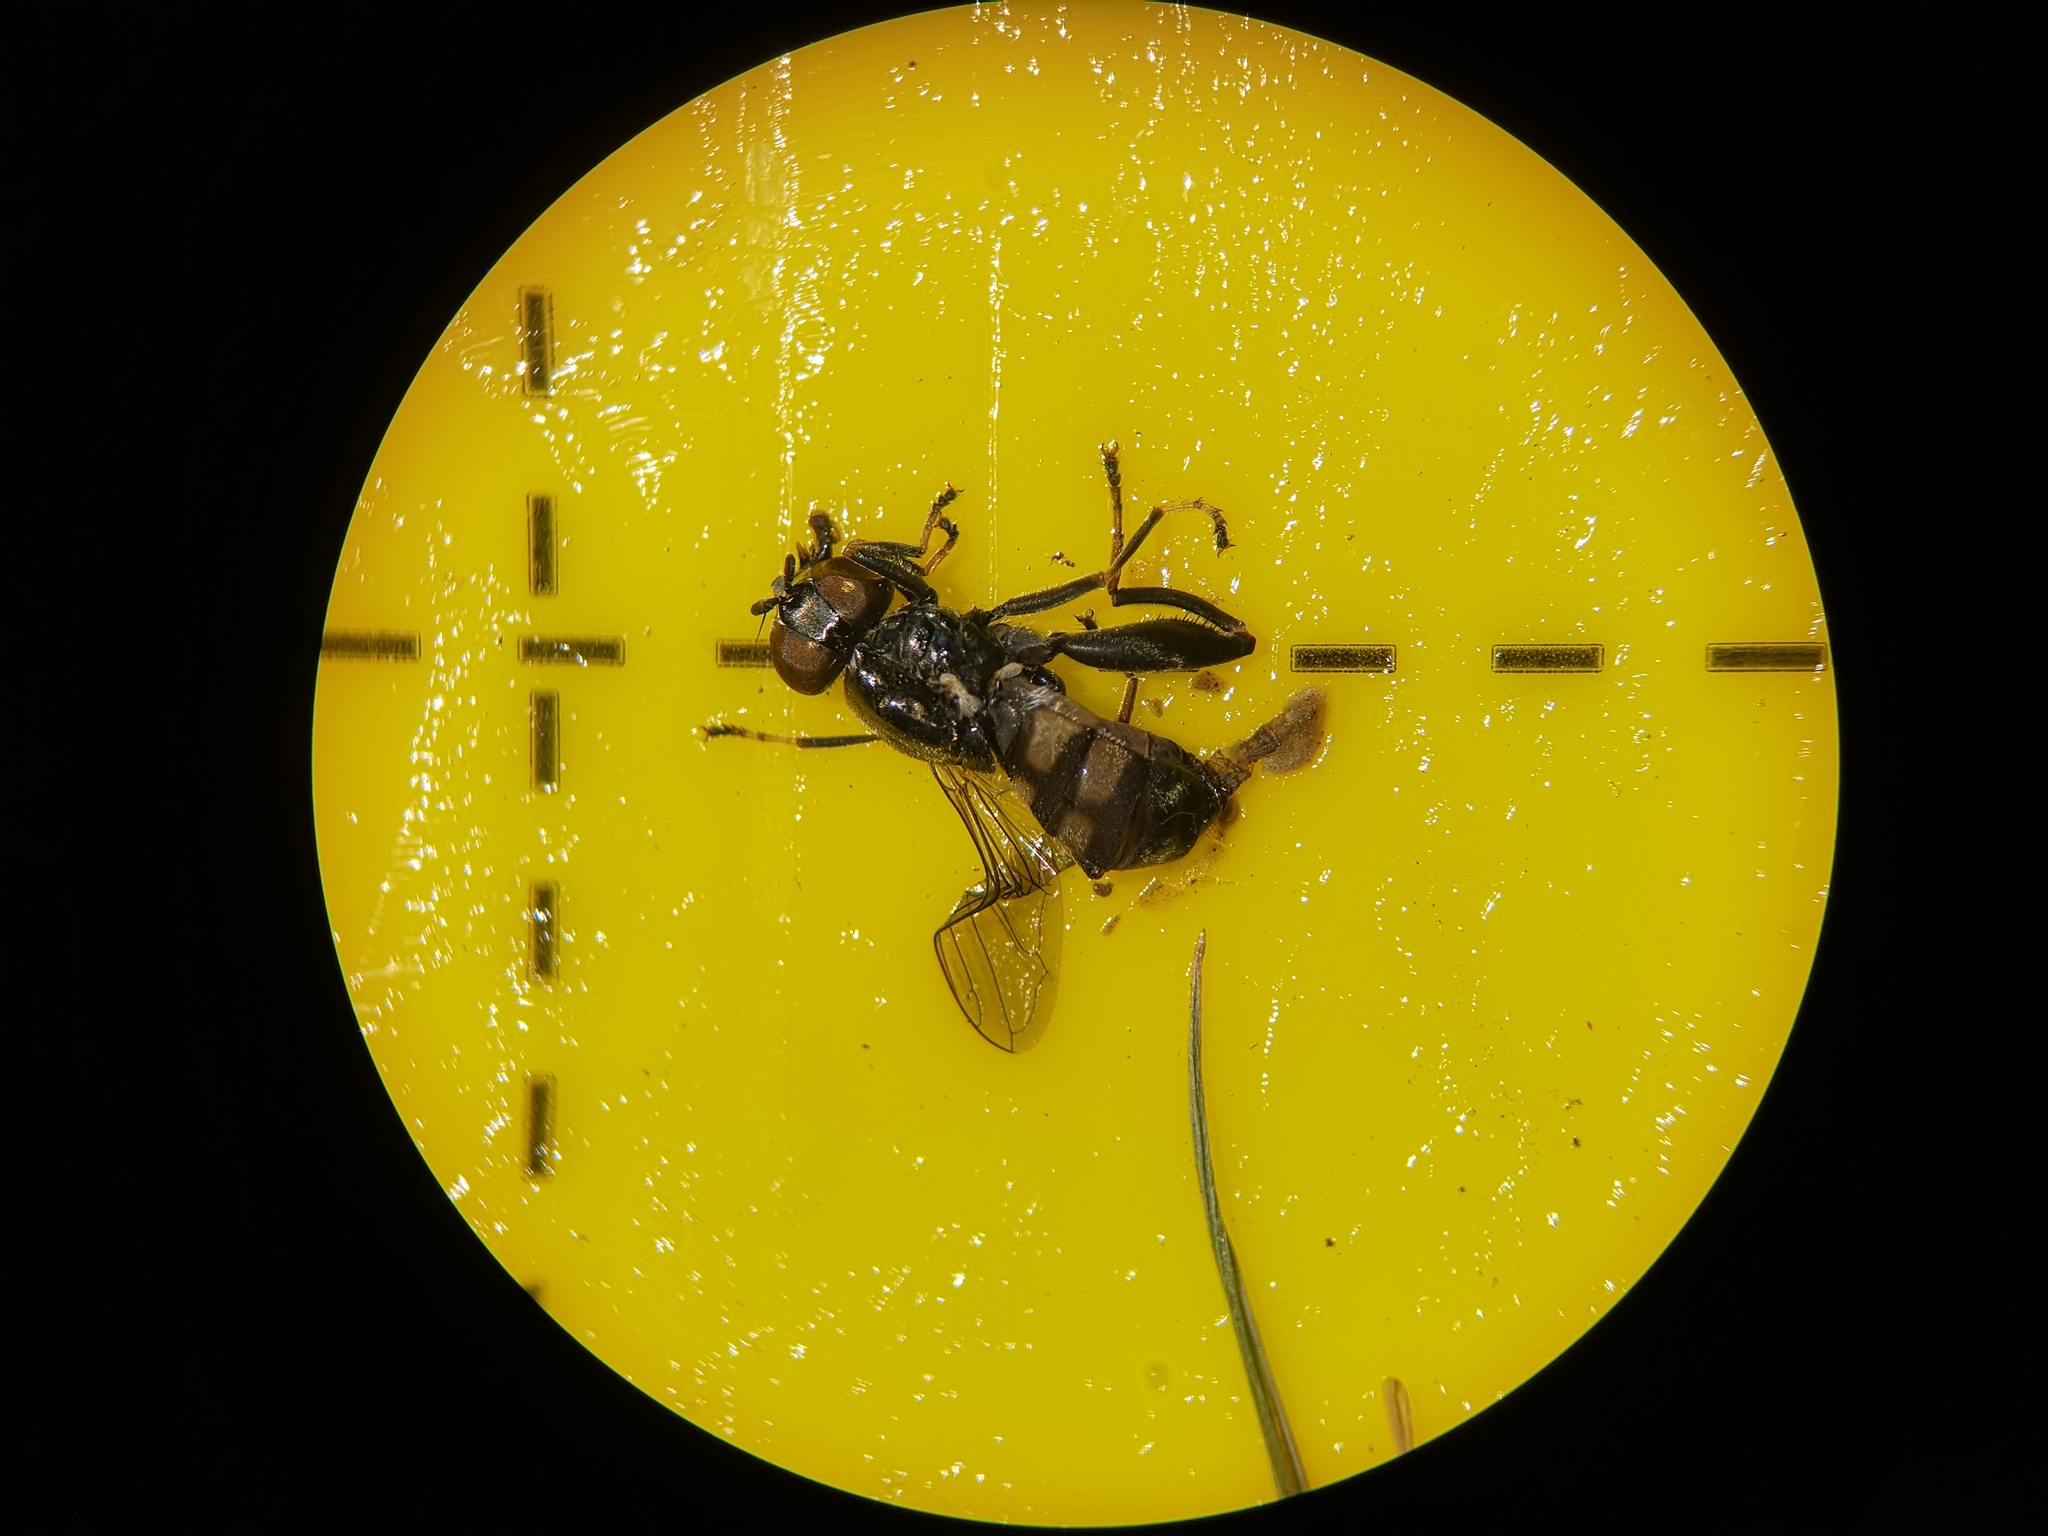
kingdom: Animalia
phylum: Arthropoda
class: Insecta
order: Diptera
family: Syrphidae
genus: Chalcosyrphus
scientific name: Chalcosyrphus nemorum
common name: Dusky-banded forest fly
